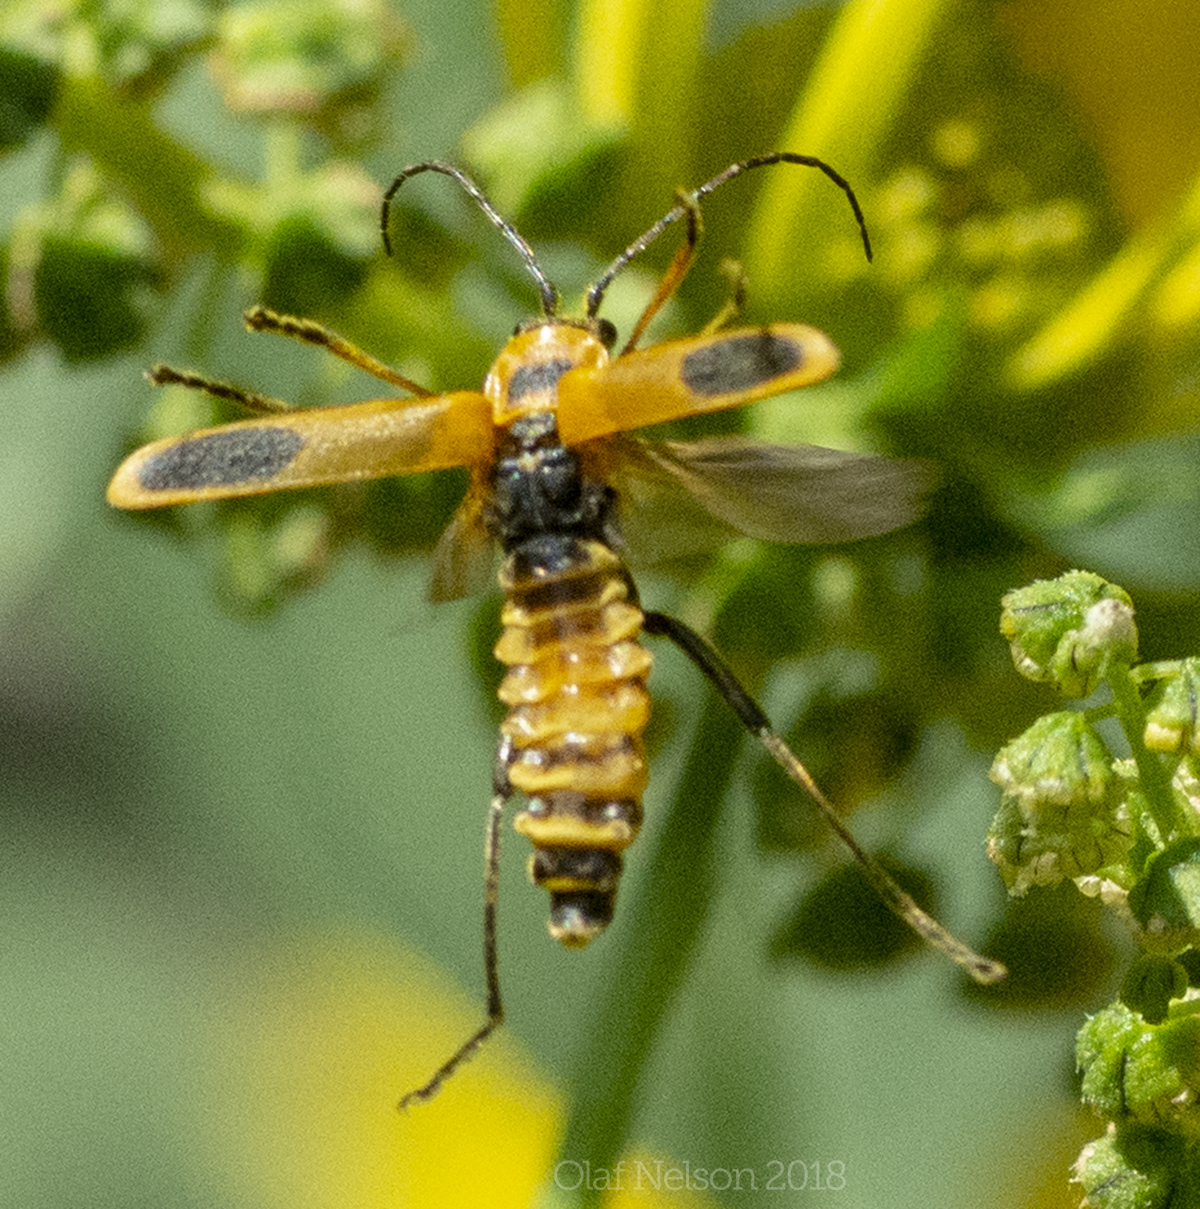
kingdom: Animalia
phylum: Arthropoda
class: Insecta
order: Coleoptera
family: Cantharidae
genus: Chauliognathus
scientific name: Chauliognathus pensylvanicus
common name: Goldenrod soldier beetle
